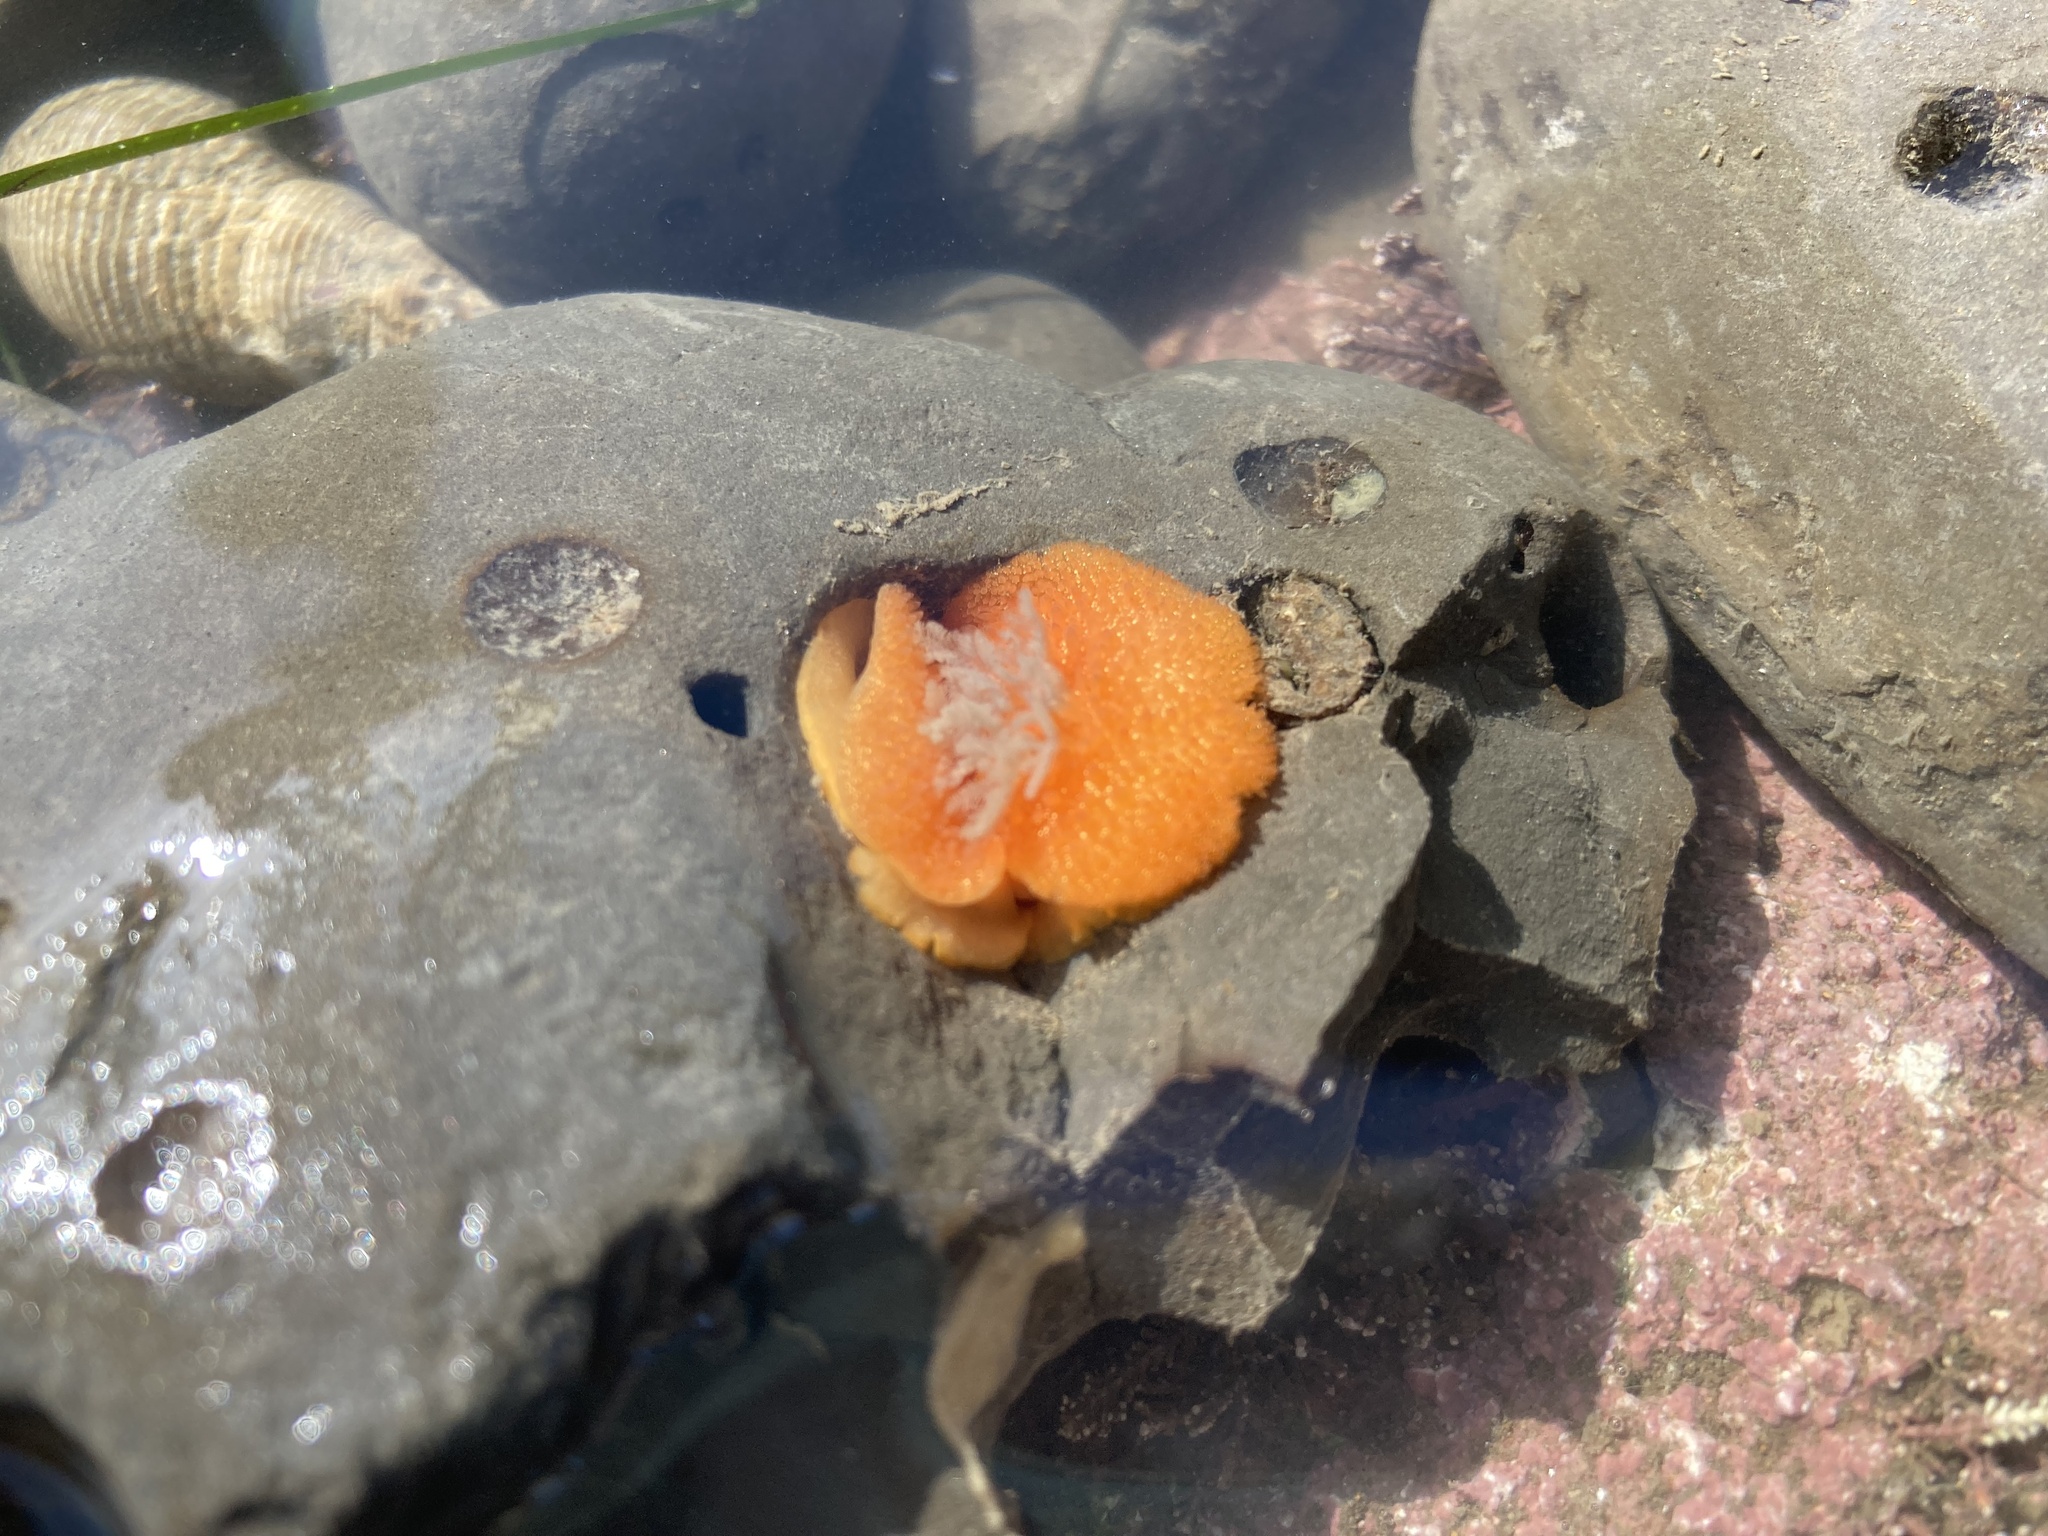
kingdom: Animalia
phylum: Mollusca
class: Gastropoda
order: Nudibranchia
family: Onchidorididae
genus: Acanthodoris
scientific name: Acanthodoris lutea
